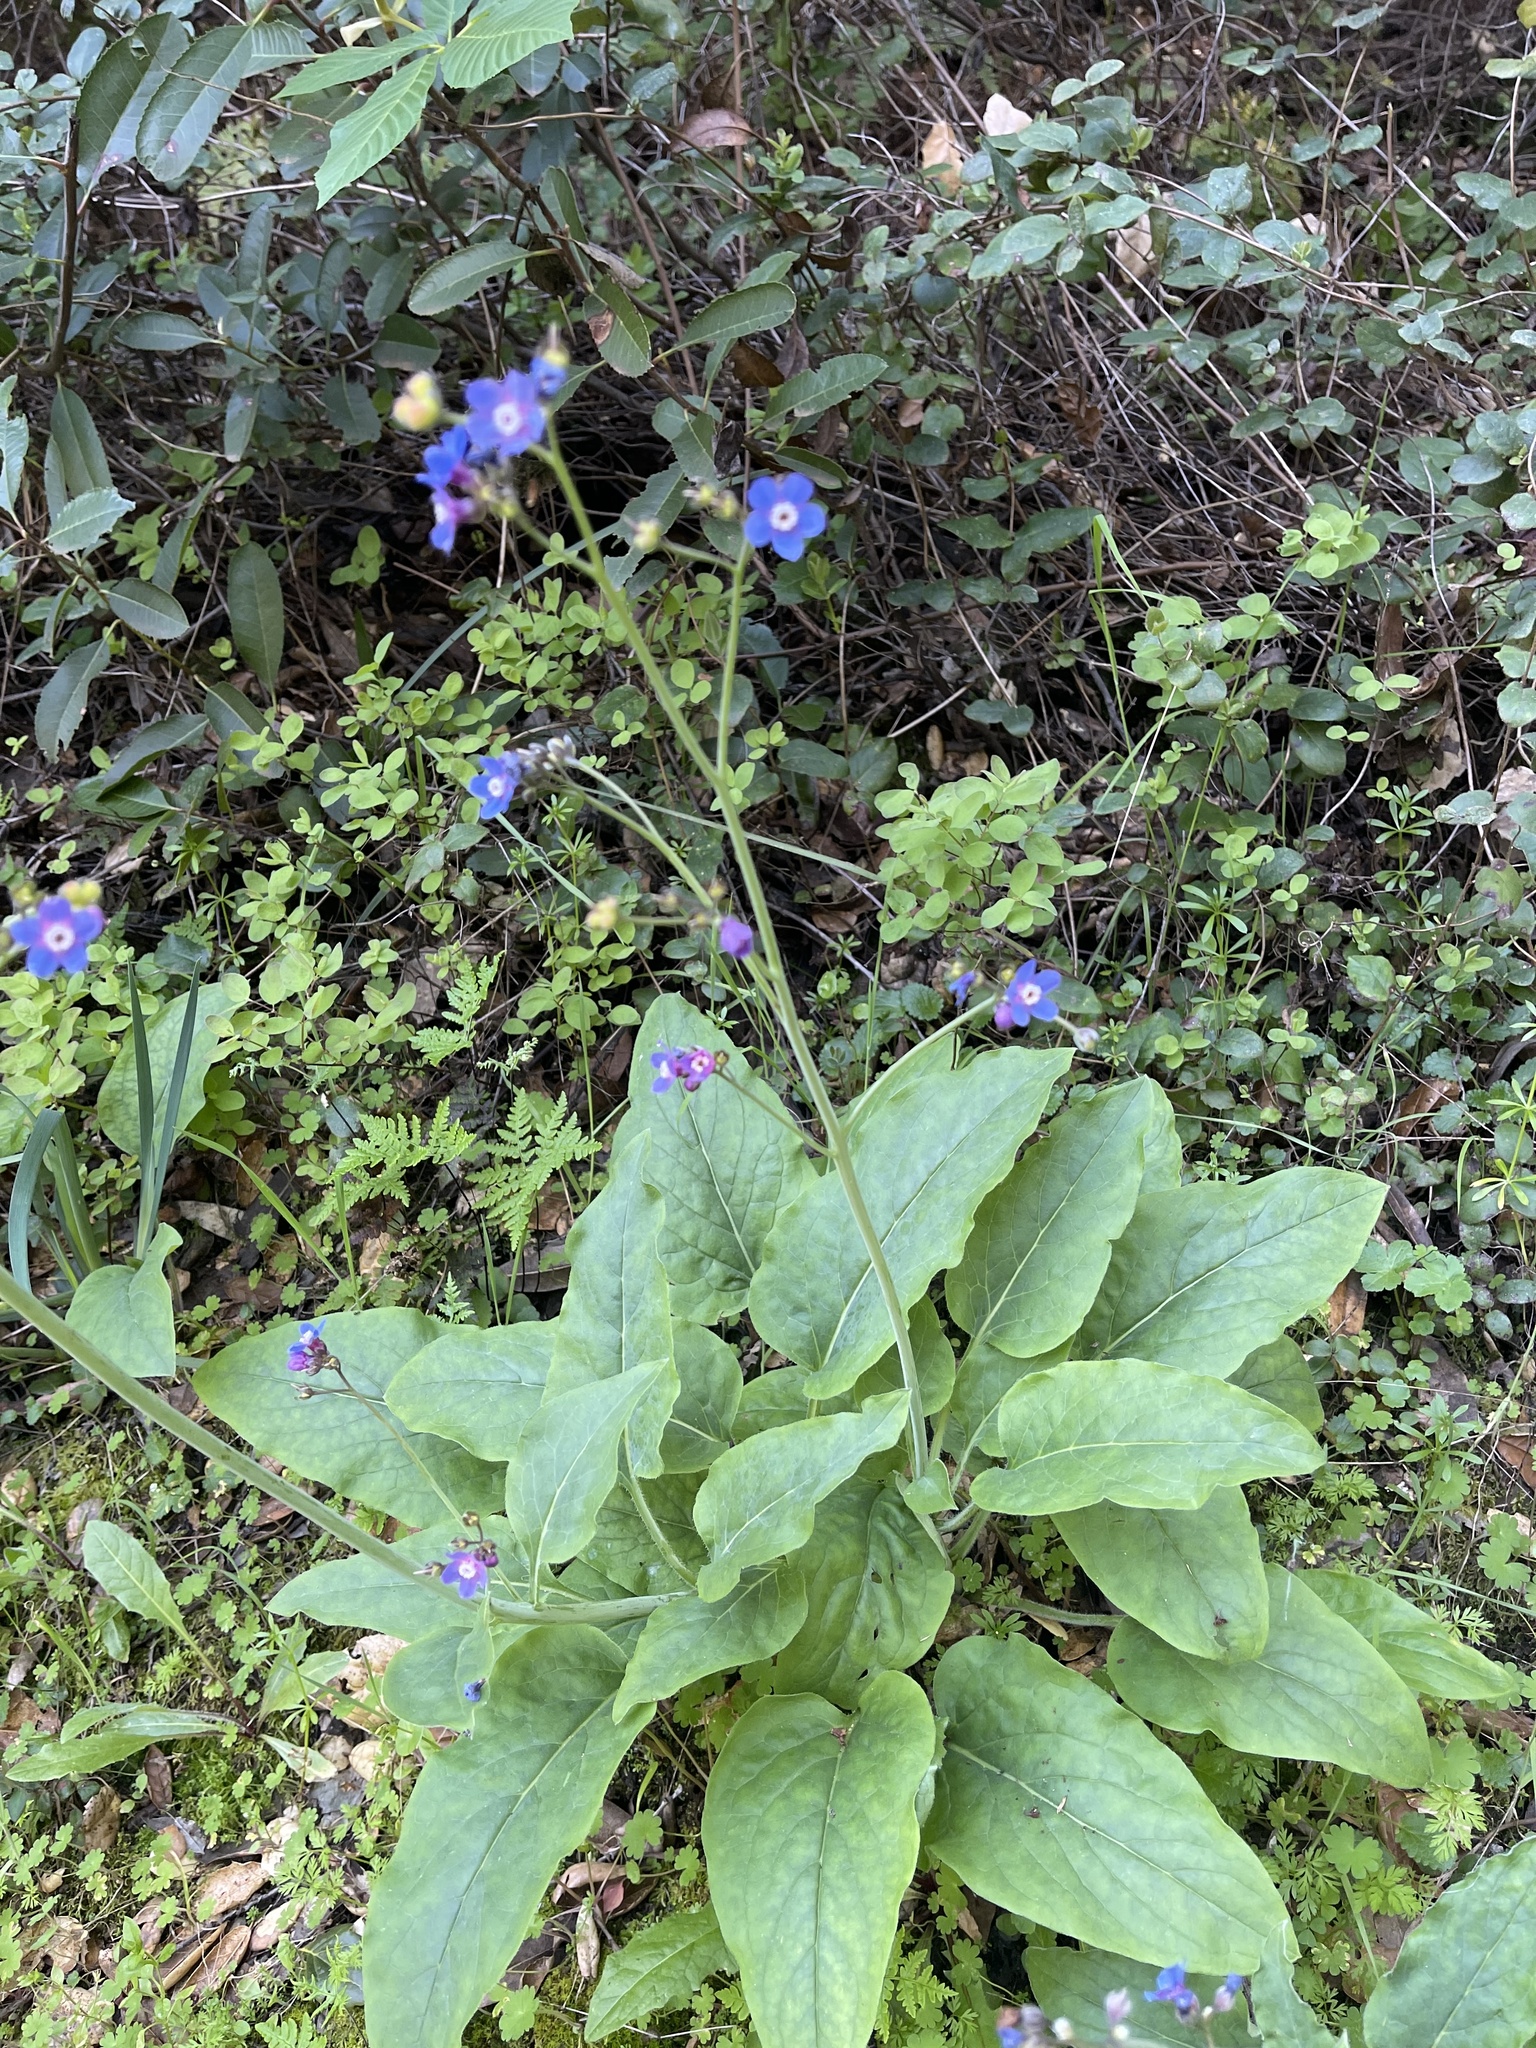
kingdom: Plantae
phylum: Tracheophyta
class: Magnoliopsida
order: Boraginales
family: Boraginaceae
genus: Adelinia
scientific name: Adelinia grande
